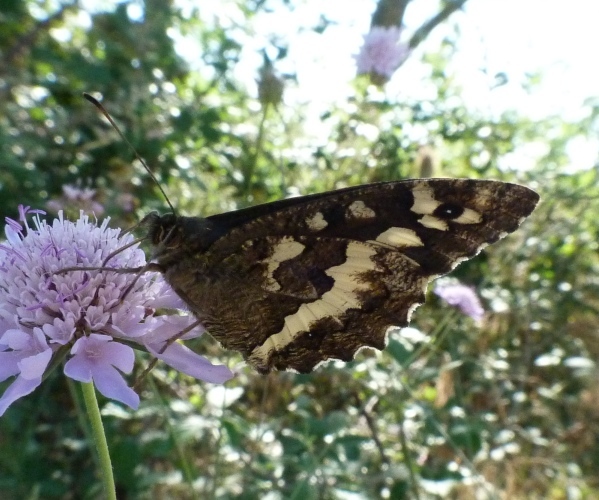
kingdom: Animalia
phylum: Arthropoda
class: Insecta
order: Lepidoptera
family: Lycaenidae
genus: Loweia
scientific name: Loweia tityrus
